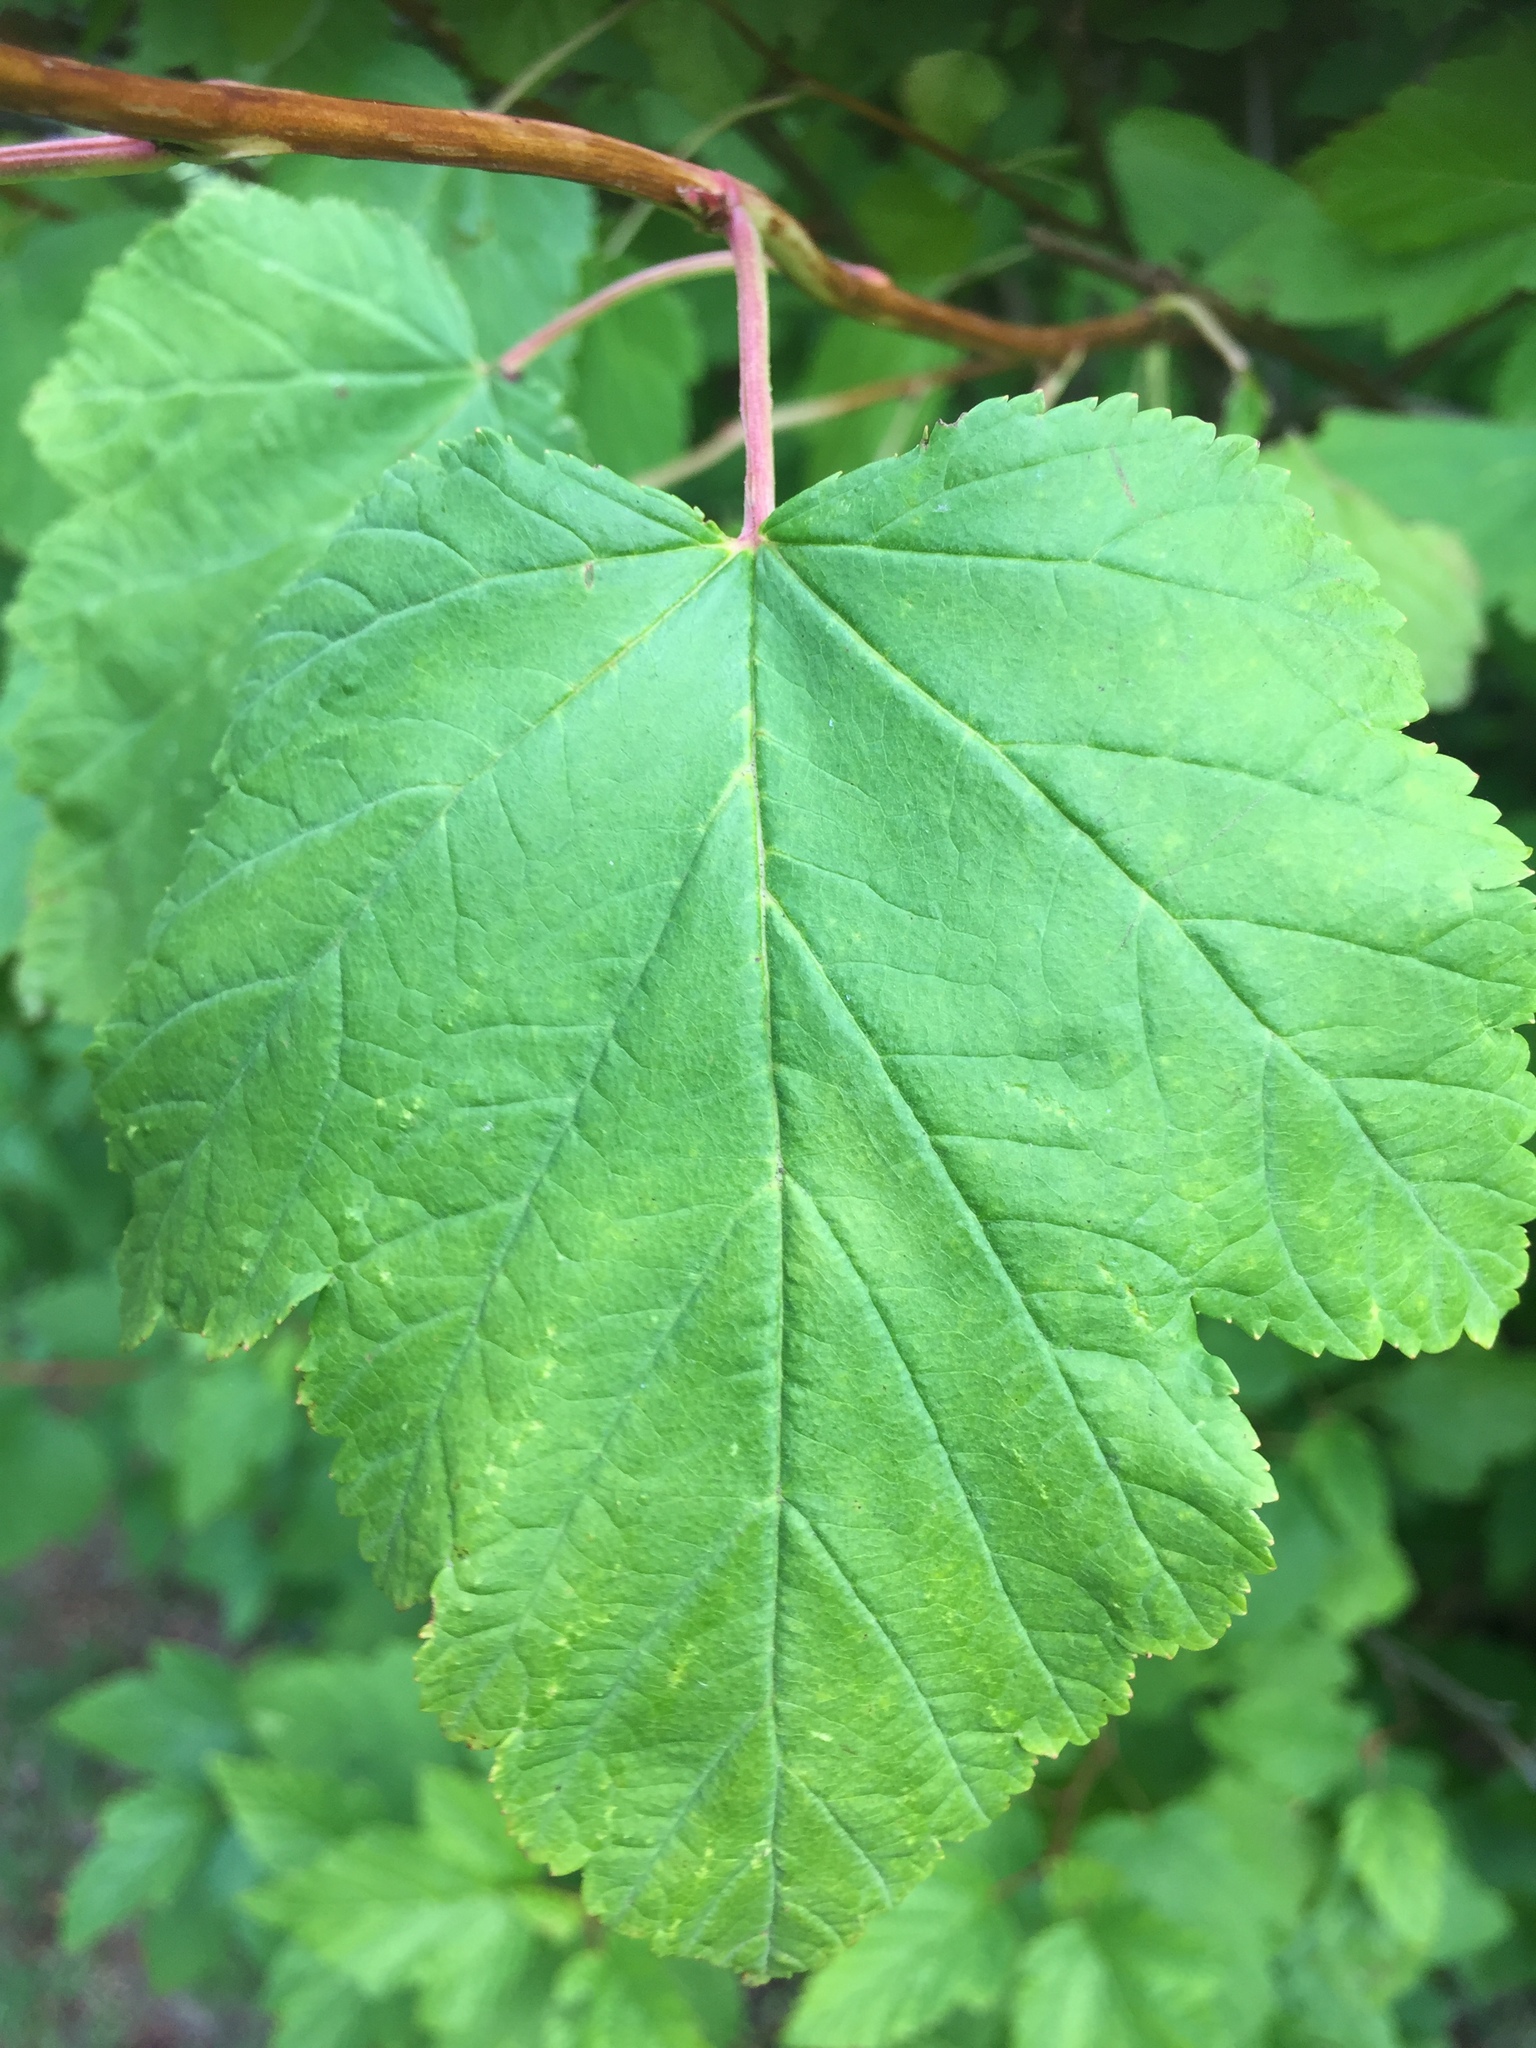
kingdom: Plantae
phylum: Tracheophyta
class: Magnoliopsida
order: Rosales
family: Rosaceae
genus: Physocarpus
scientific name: Physocarpus opulifolius
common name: Ninebark
